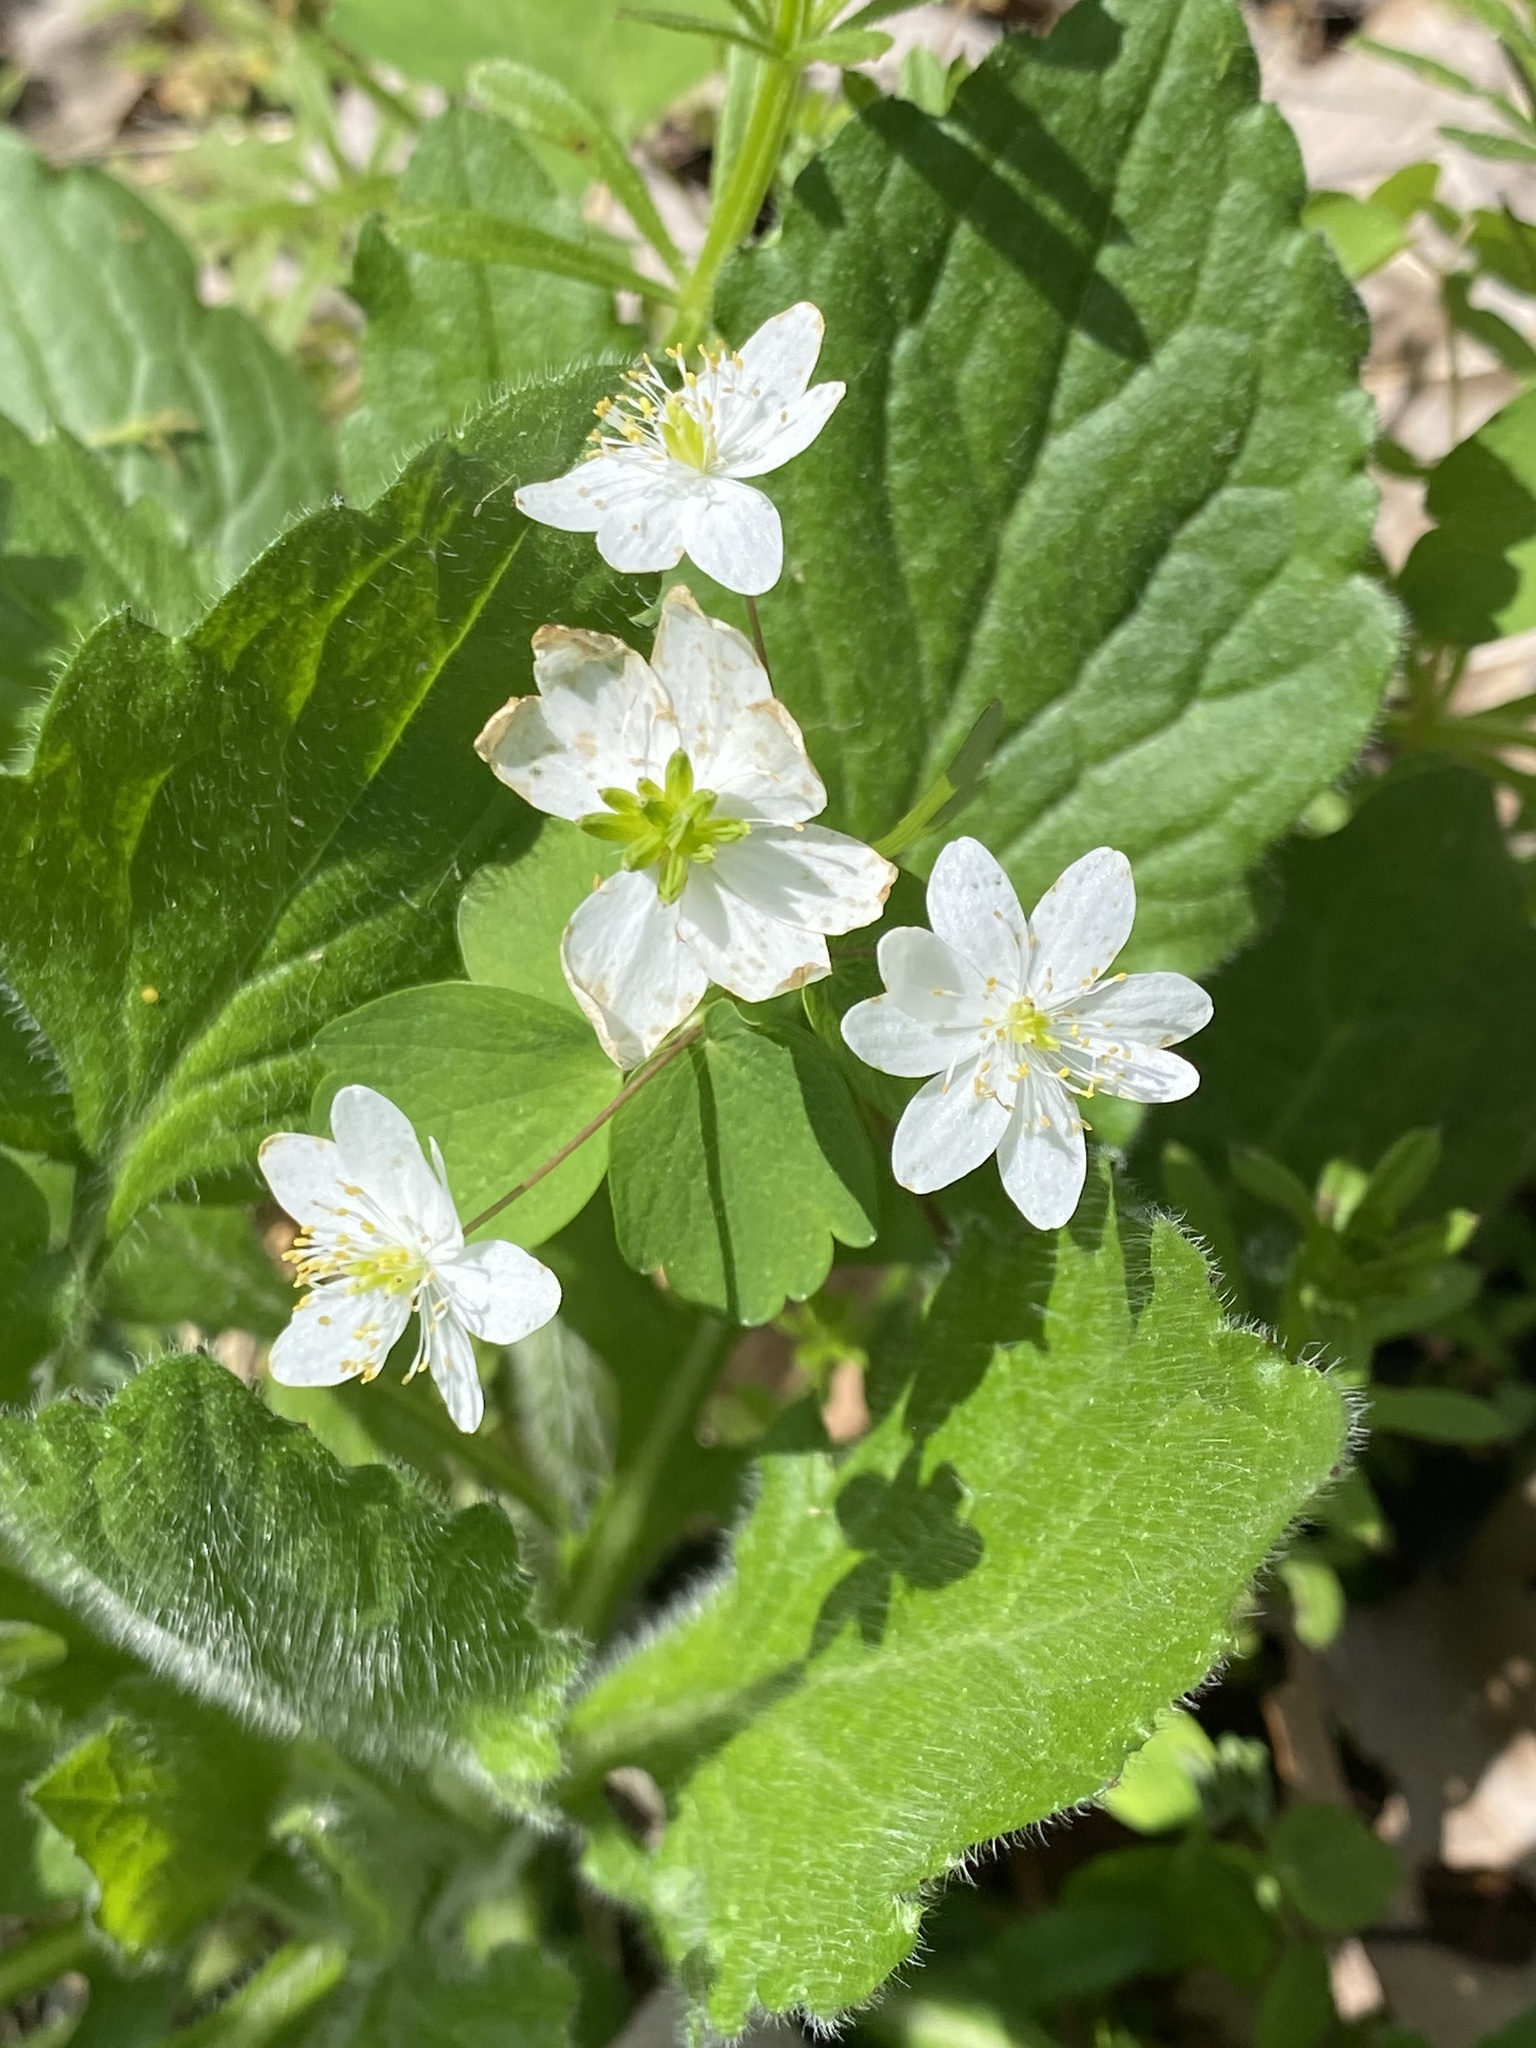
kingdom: Plantae
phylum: Tracheophyta
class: Magnoliopsida
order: Ranunculales
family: Ranunculaceae
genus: Thalictrum
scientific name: Thalictrum thalictroides
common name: Rue-anemone
